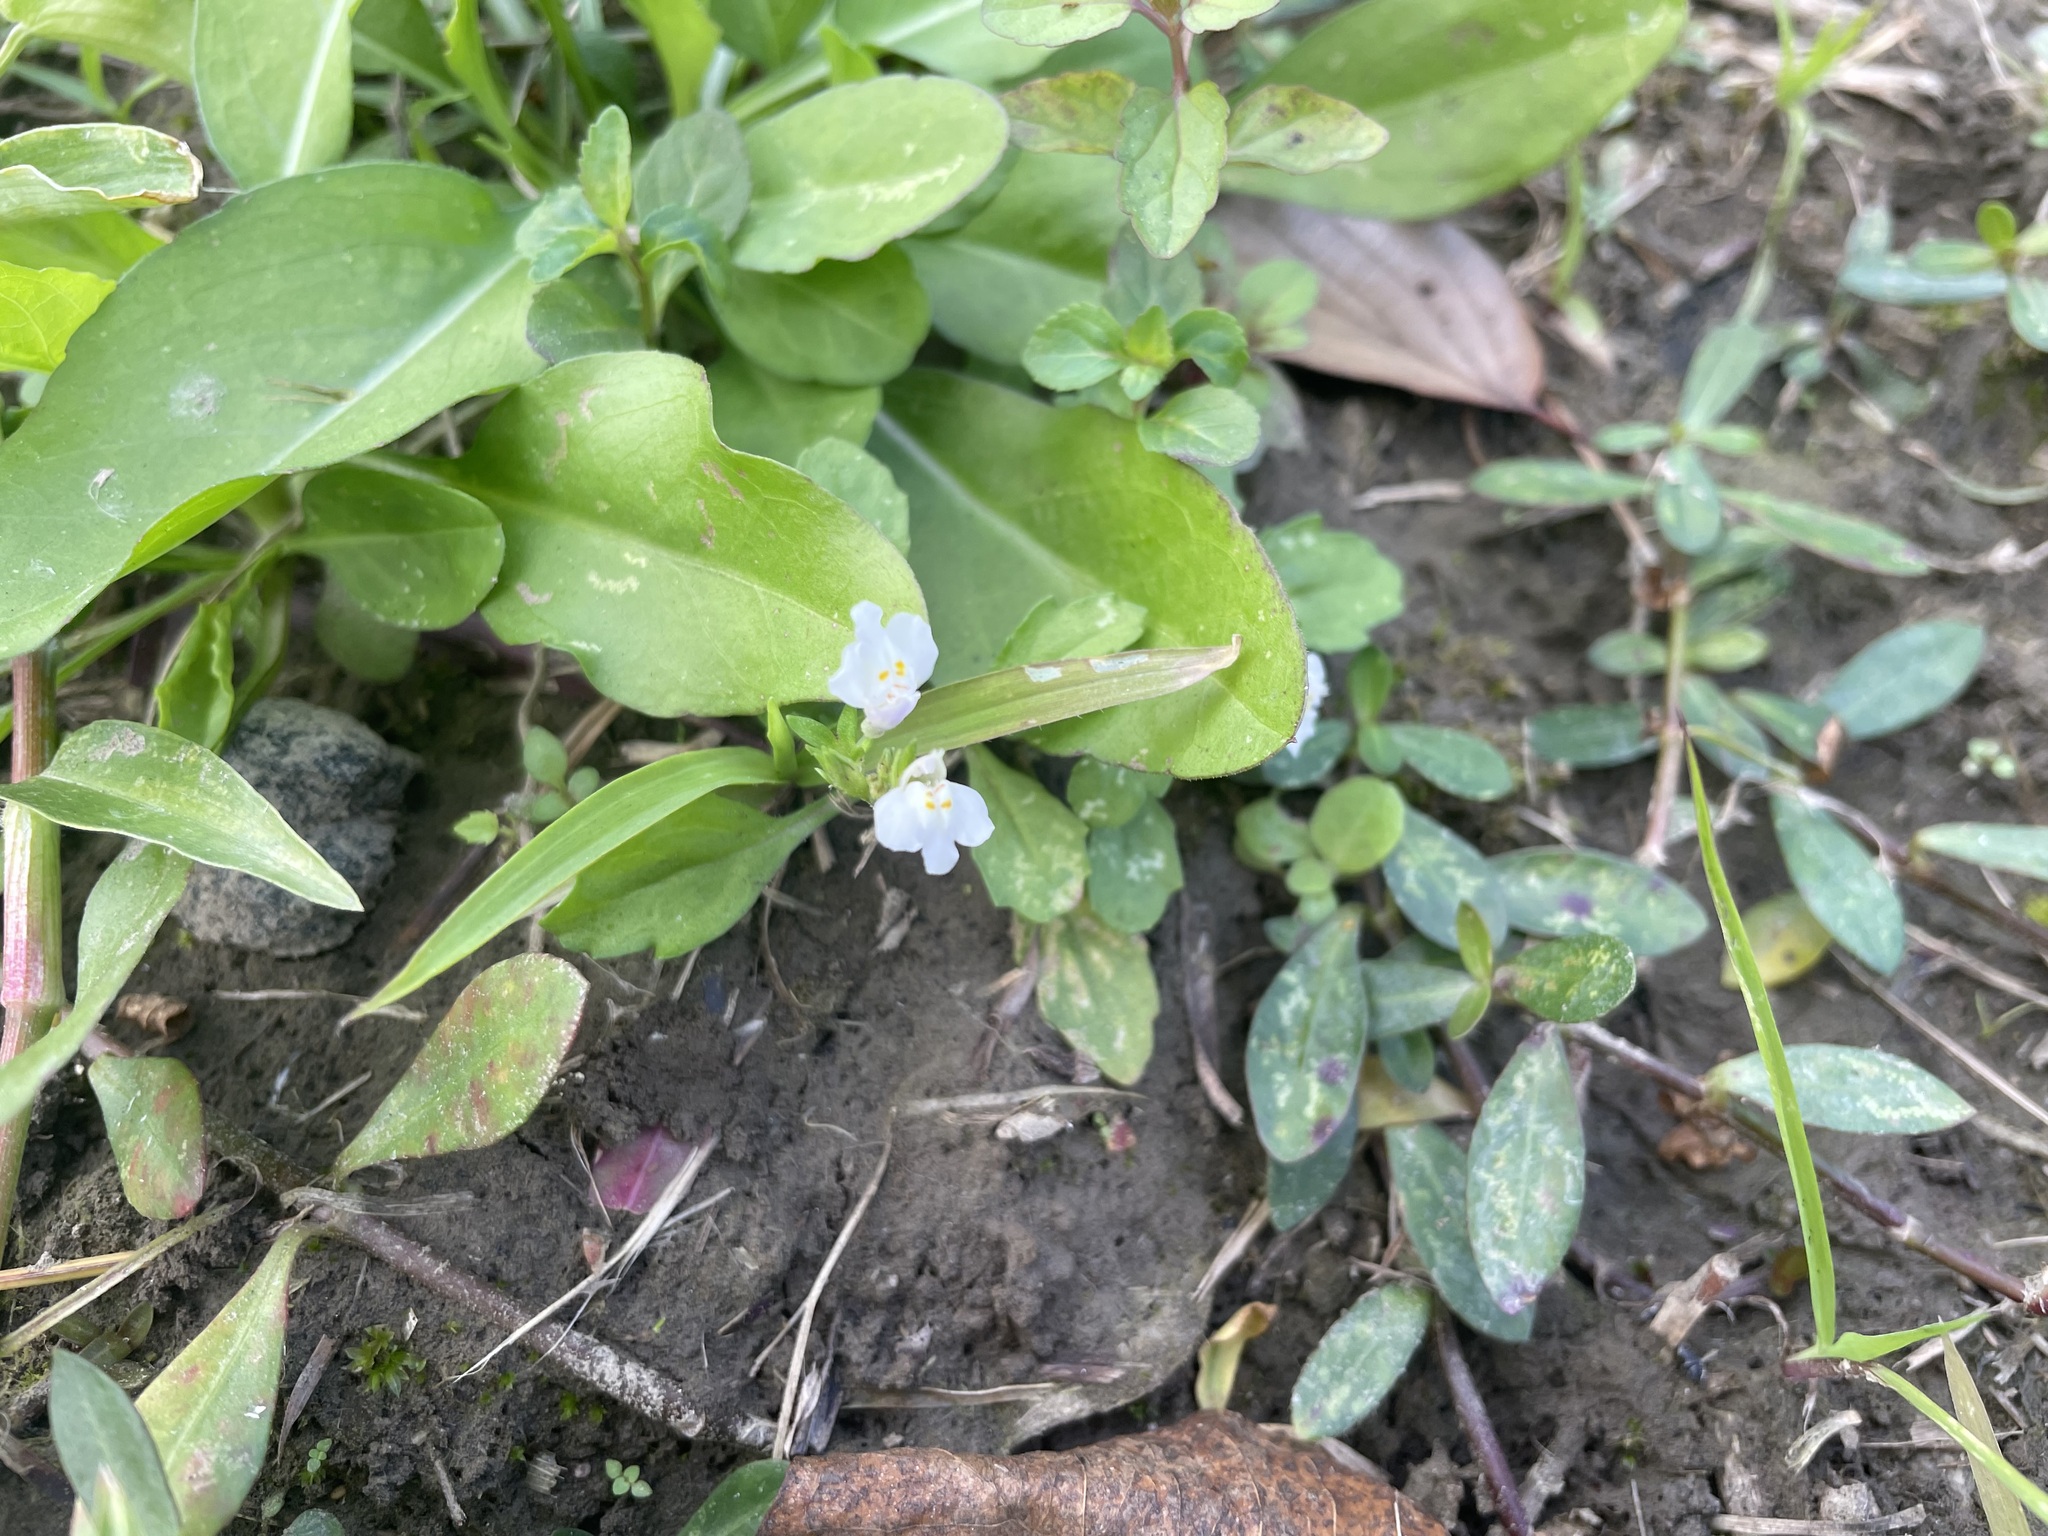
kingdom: Plantae
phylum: Tracheophyta
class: Magnoliopsida
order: Lamiales
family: Linderniaceae
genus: Bonnaya
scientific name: Bonnaya antipoda
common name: Sparrow false pimpernel
